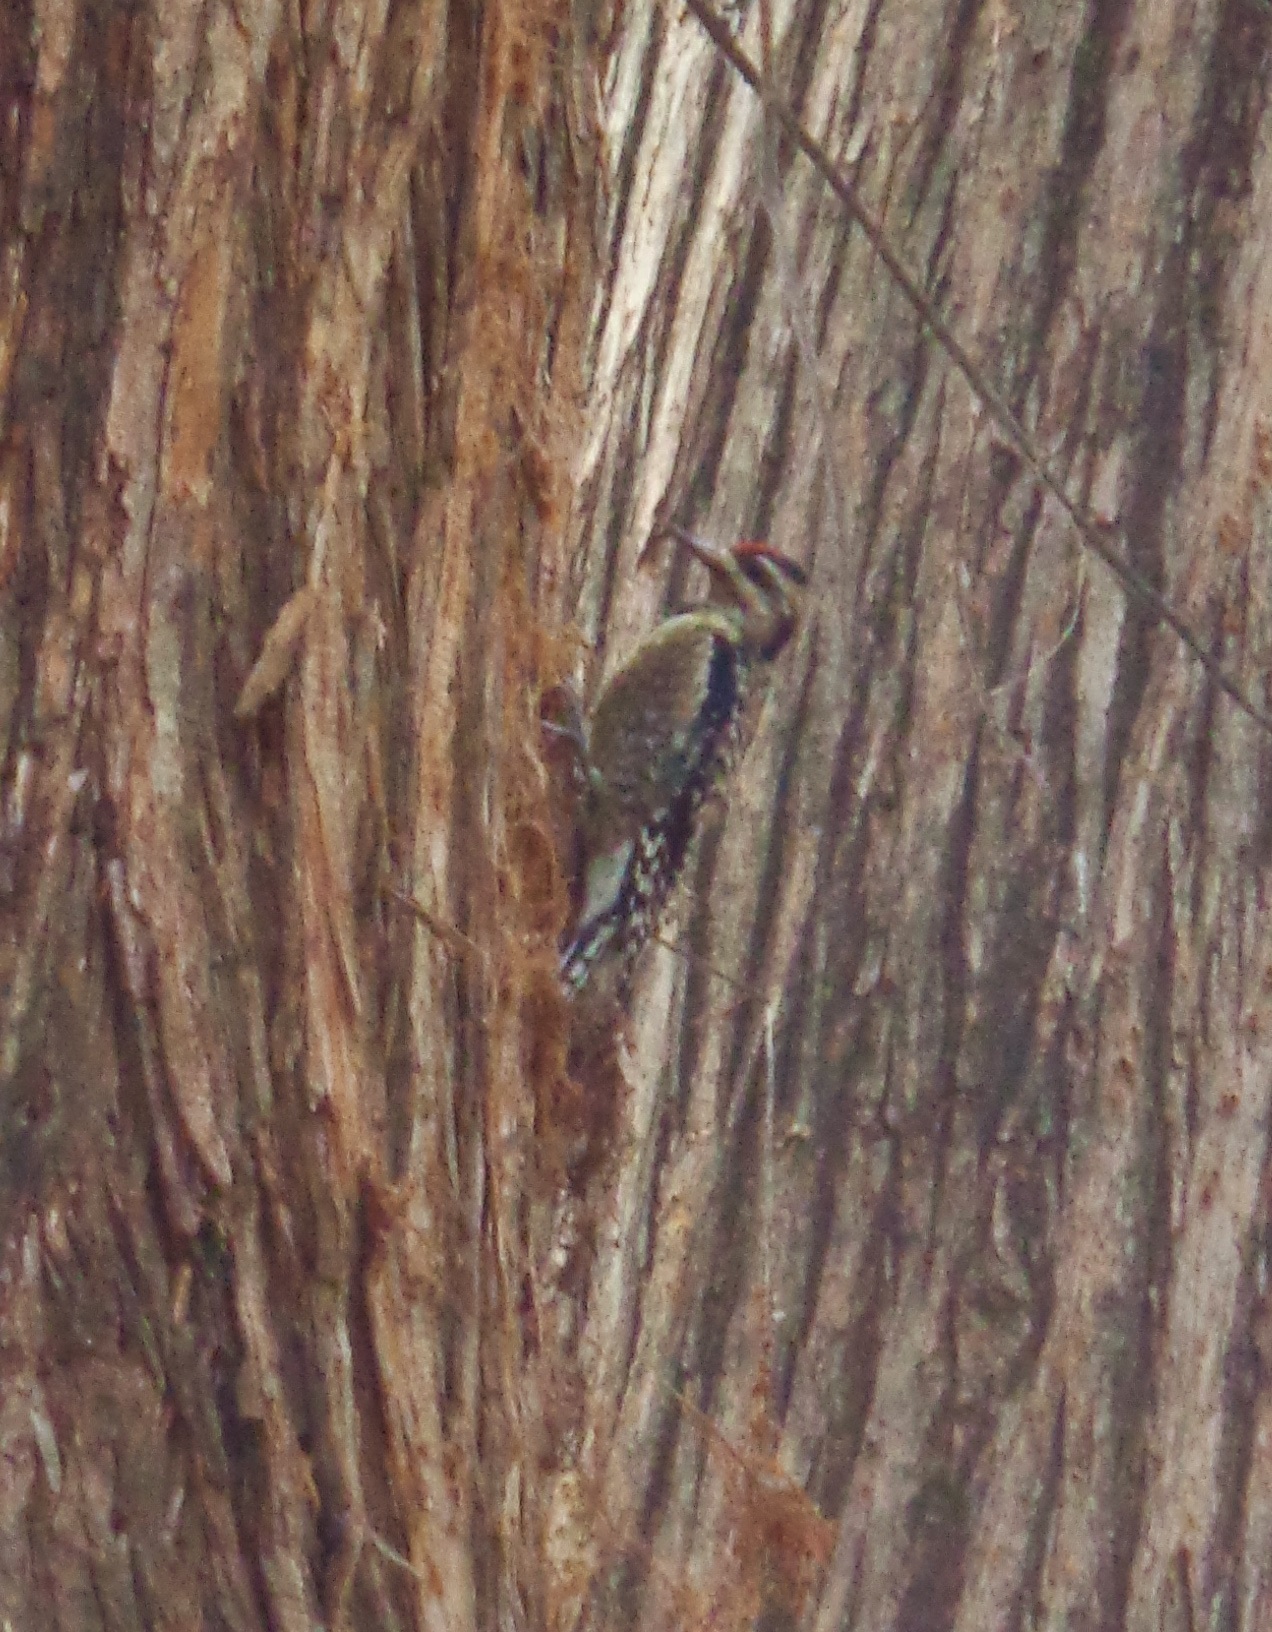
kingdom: Animalia
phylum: Chordata
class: Aves
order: Piciformes
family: Picidae
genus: Sphyrapicus
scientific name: Sphyrapicus varius
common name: Yellow-bellied sapsucker
